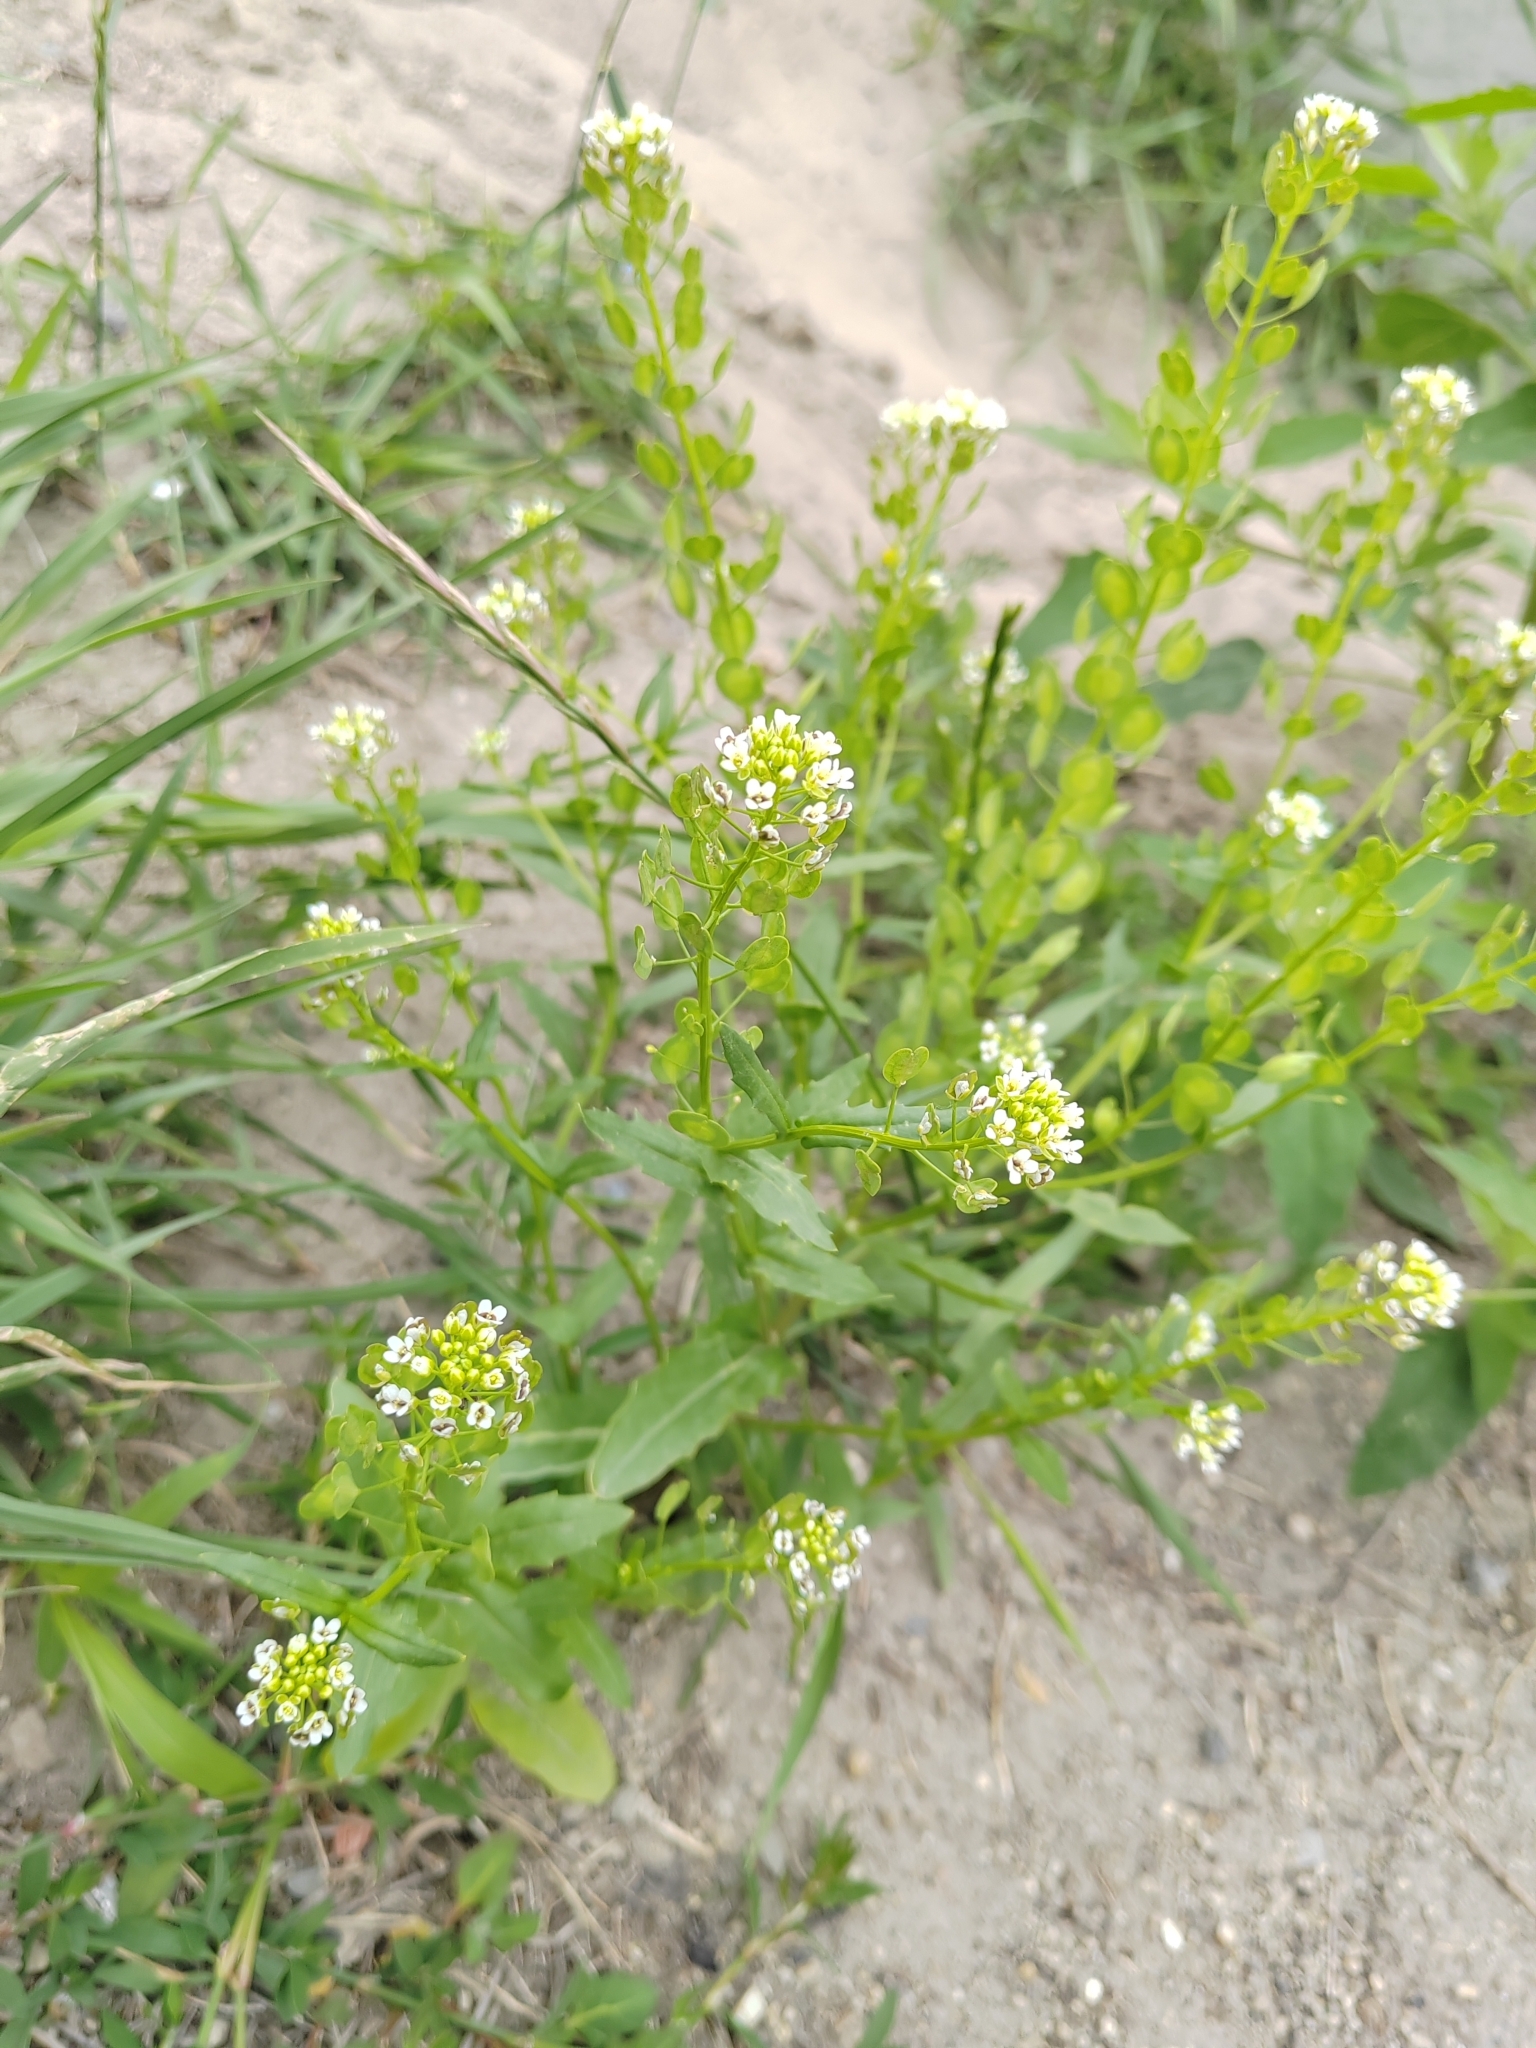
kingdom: Plantae
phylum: Tracheophyta
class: Magnoliopsida
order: Brassicales
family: Brassicaceae
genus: Thlaspi
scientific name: Thlaspi arvense
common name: Field pennycress
